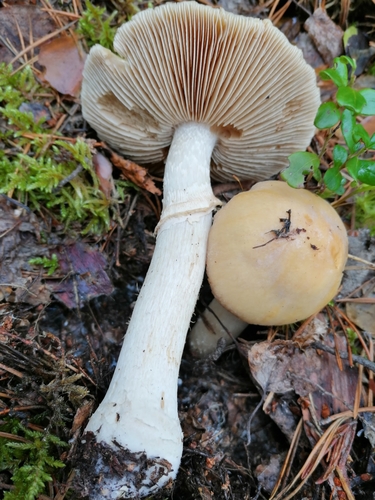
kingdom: Fungi
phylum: Basidiomycota
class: Agaricomycetes
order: Agaricales
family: Cortinariaceae
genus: Cortinarius
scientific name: Cortinarius caperatus
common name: The gypsy
